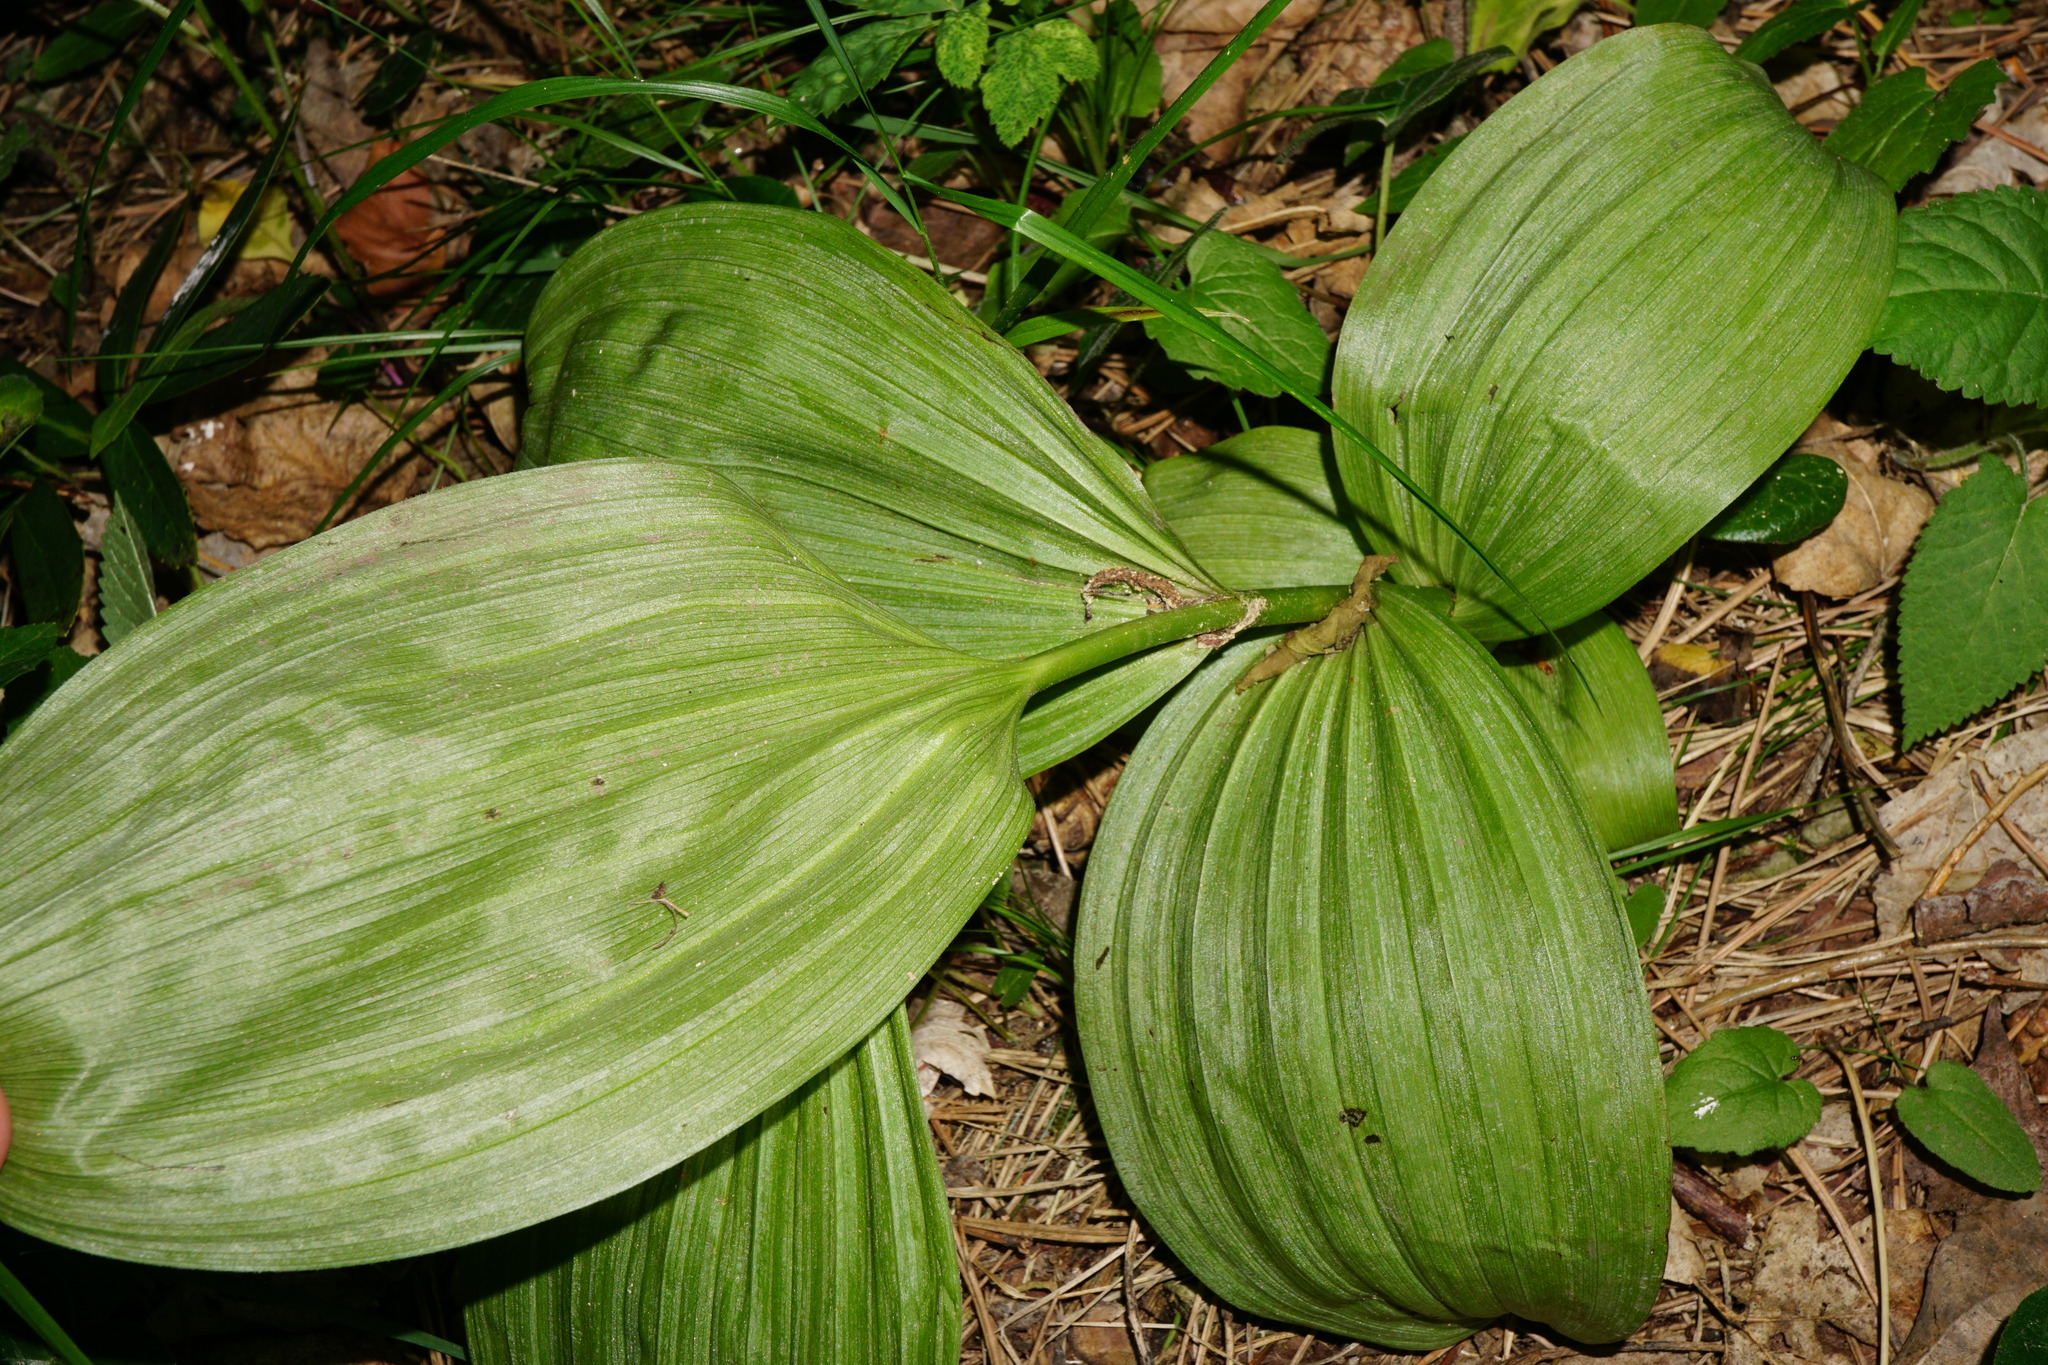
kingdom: Plantae
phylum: Tracheophyta
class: Liliopsida
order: Liliales
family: Melanthiaceae
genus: Veratrum
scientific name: Veratrum nigrum
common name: Black veratrum
